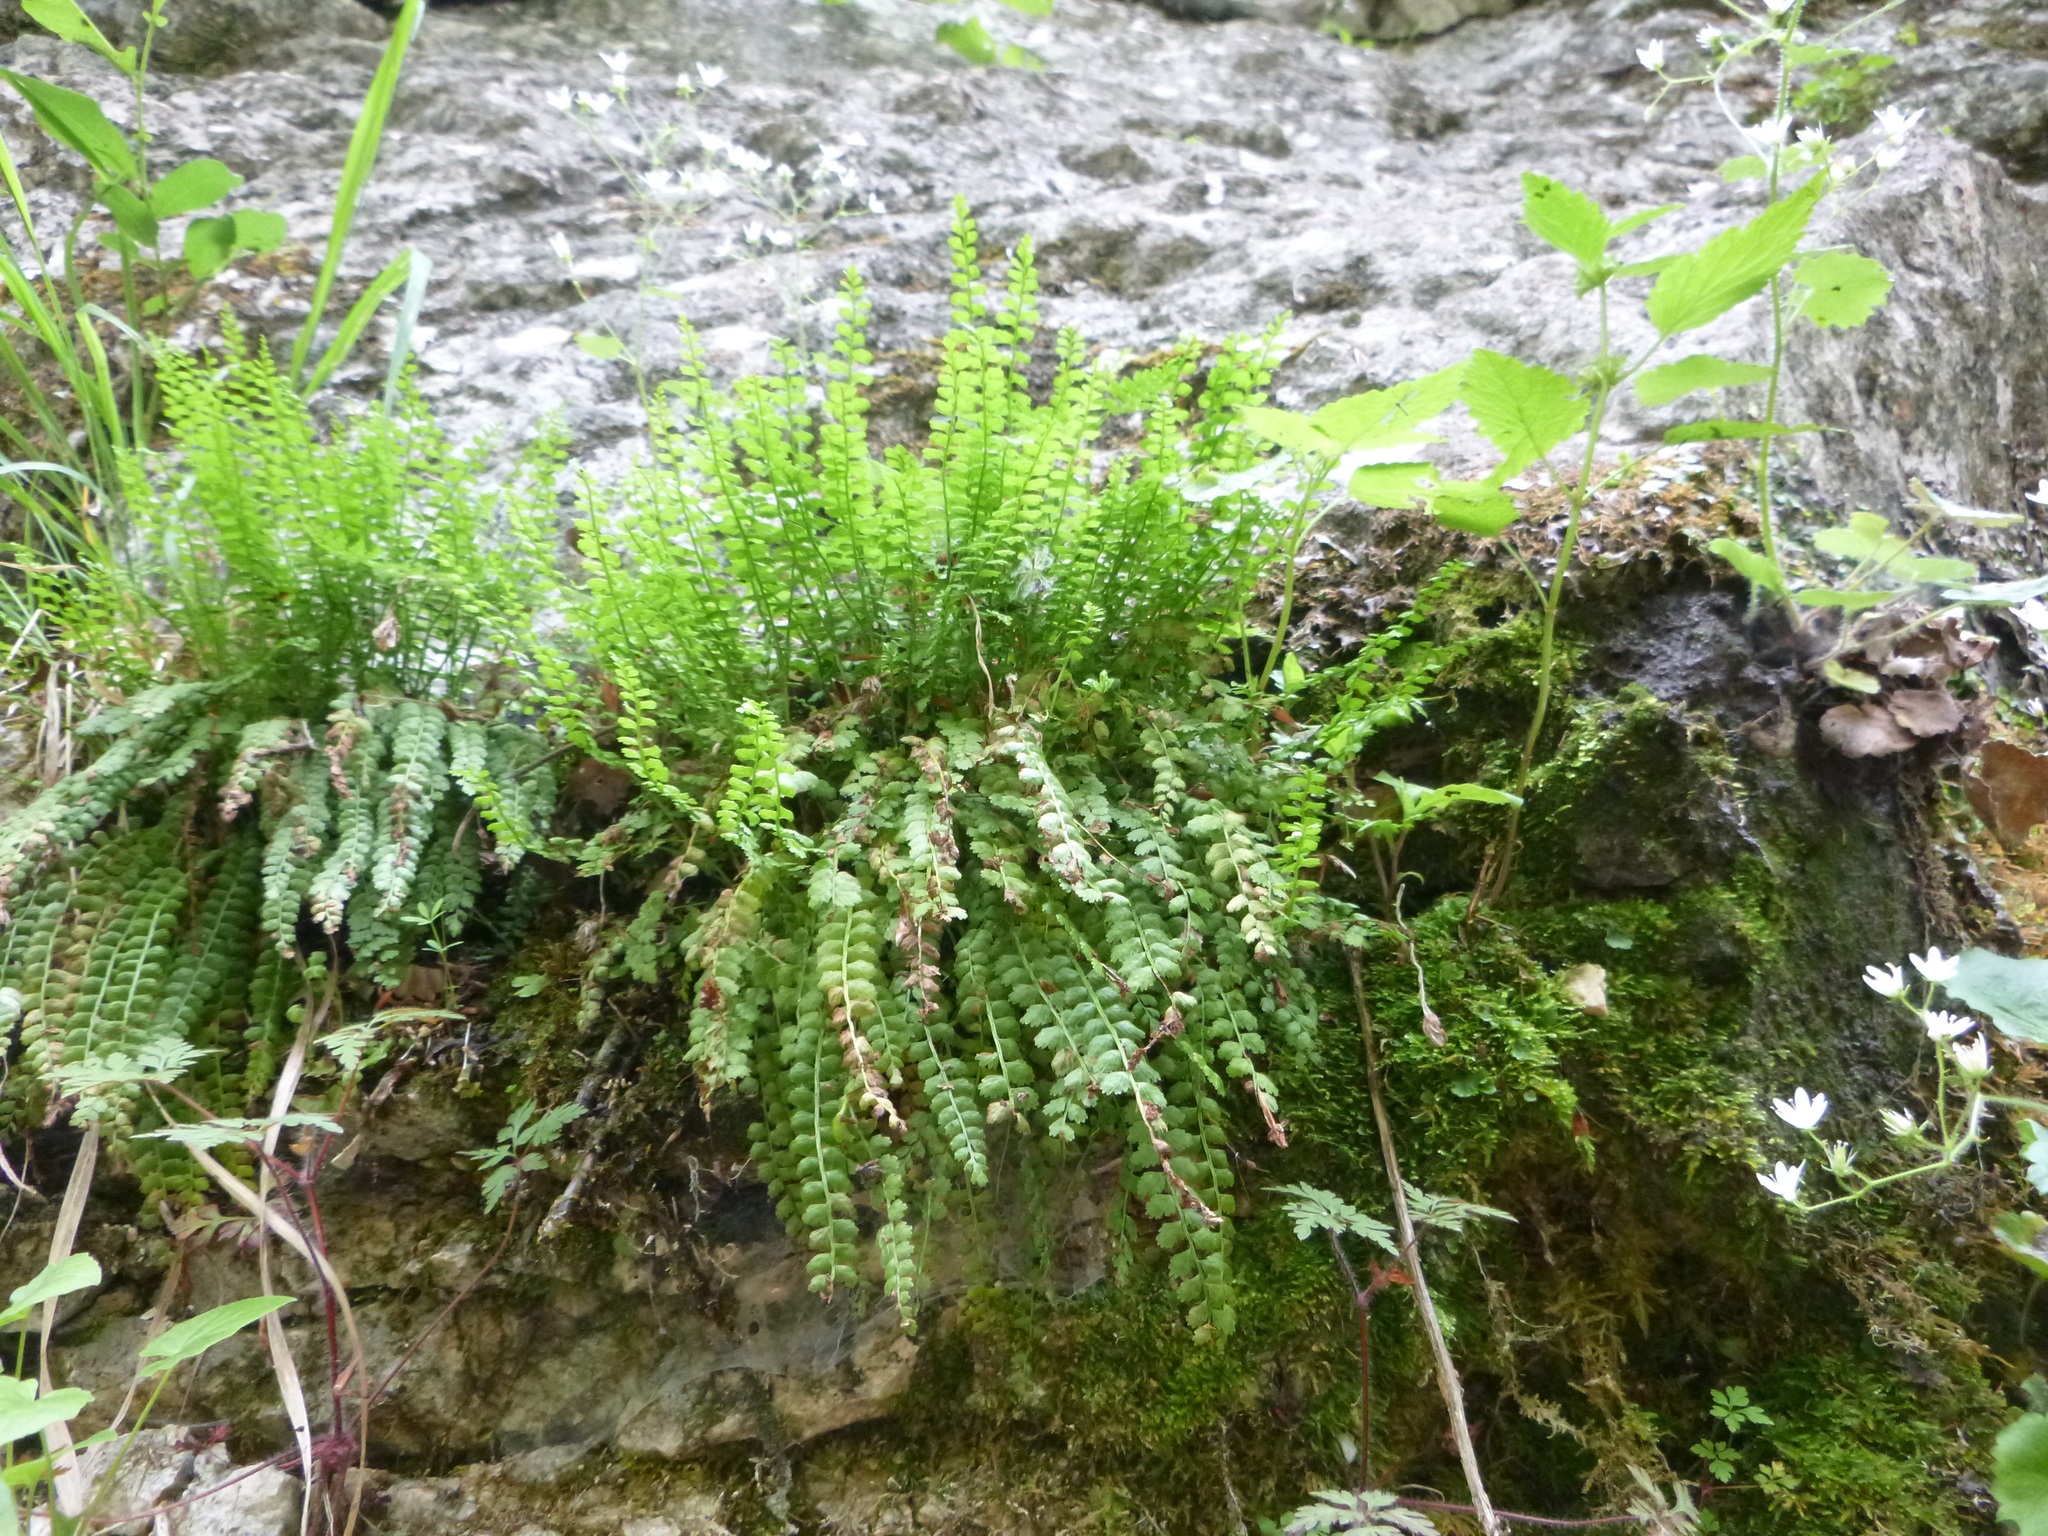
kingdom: Plantae
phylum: Tracheophyta
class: Polypodiopsida
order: Polypodiales
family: Aspleniaceae
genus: Asplenium
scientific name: Asplenium viride
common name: Green spleenwort
